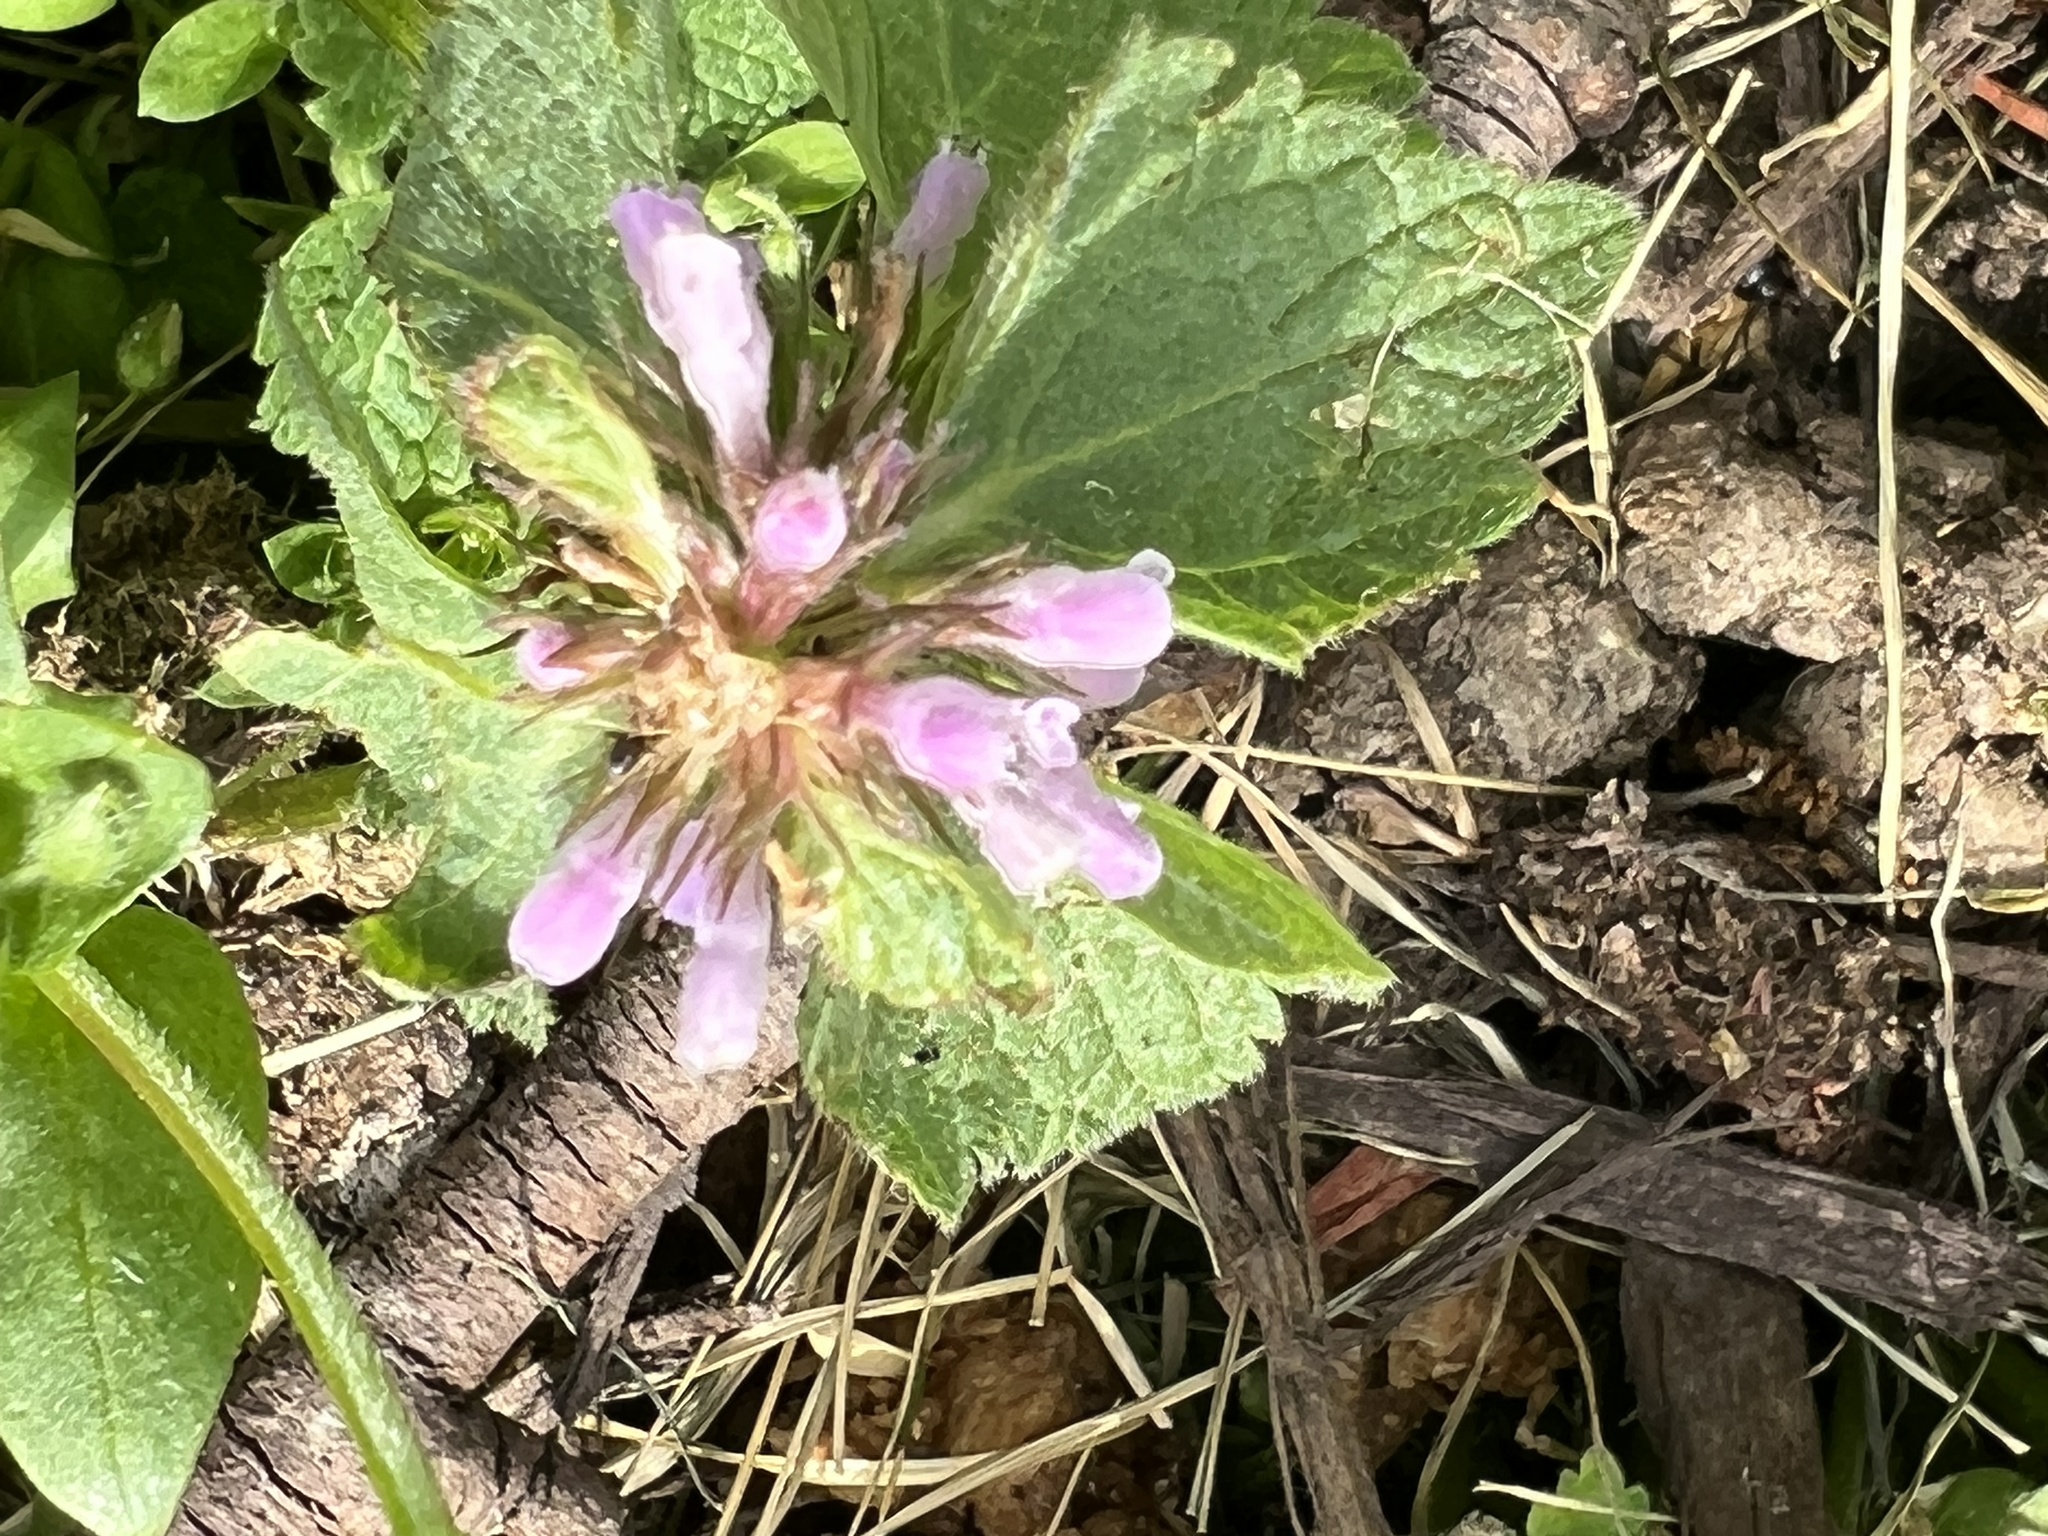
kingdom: Plantae
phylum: Tracheophyta
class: Magnoliopsida
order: Lamiales
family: Lamiaceae
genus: Lamium
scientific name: Lamium purpureum
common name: Red dead-nettle
